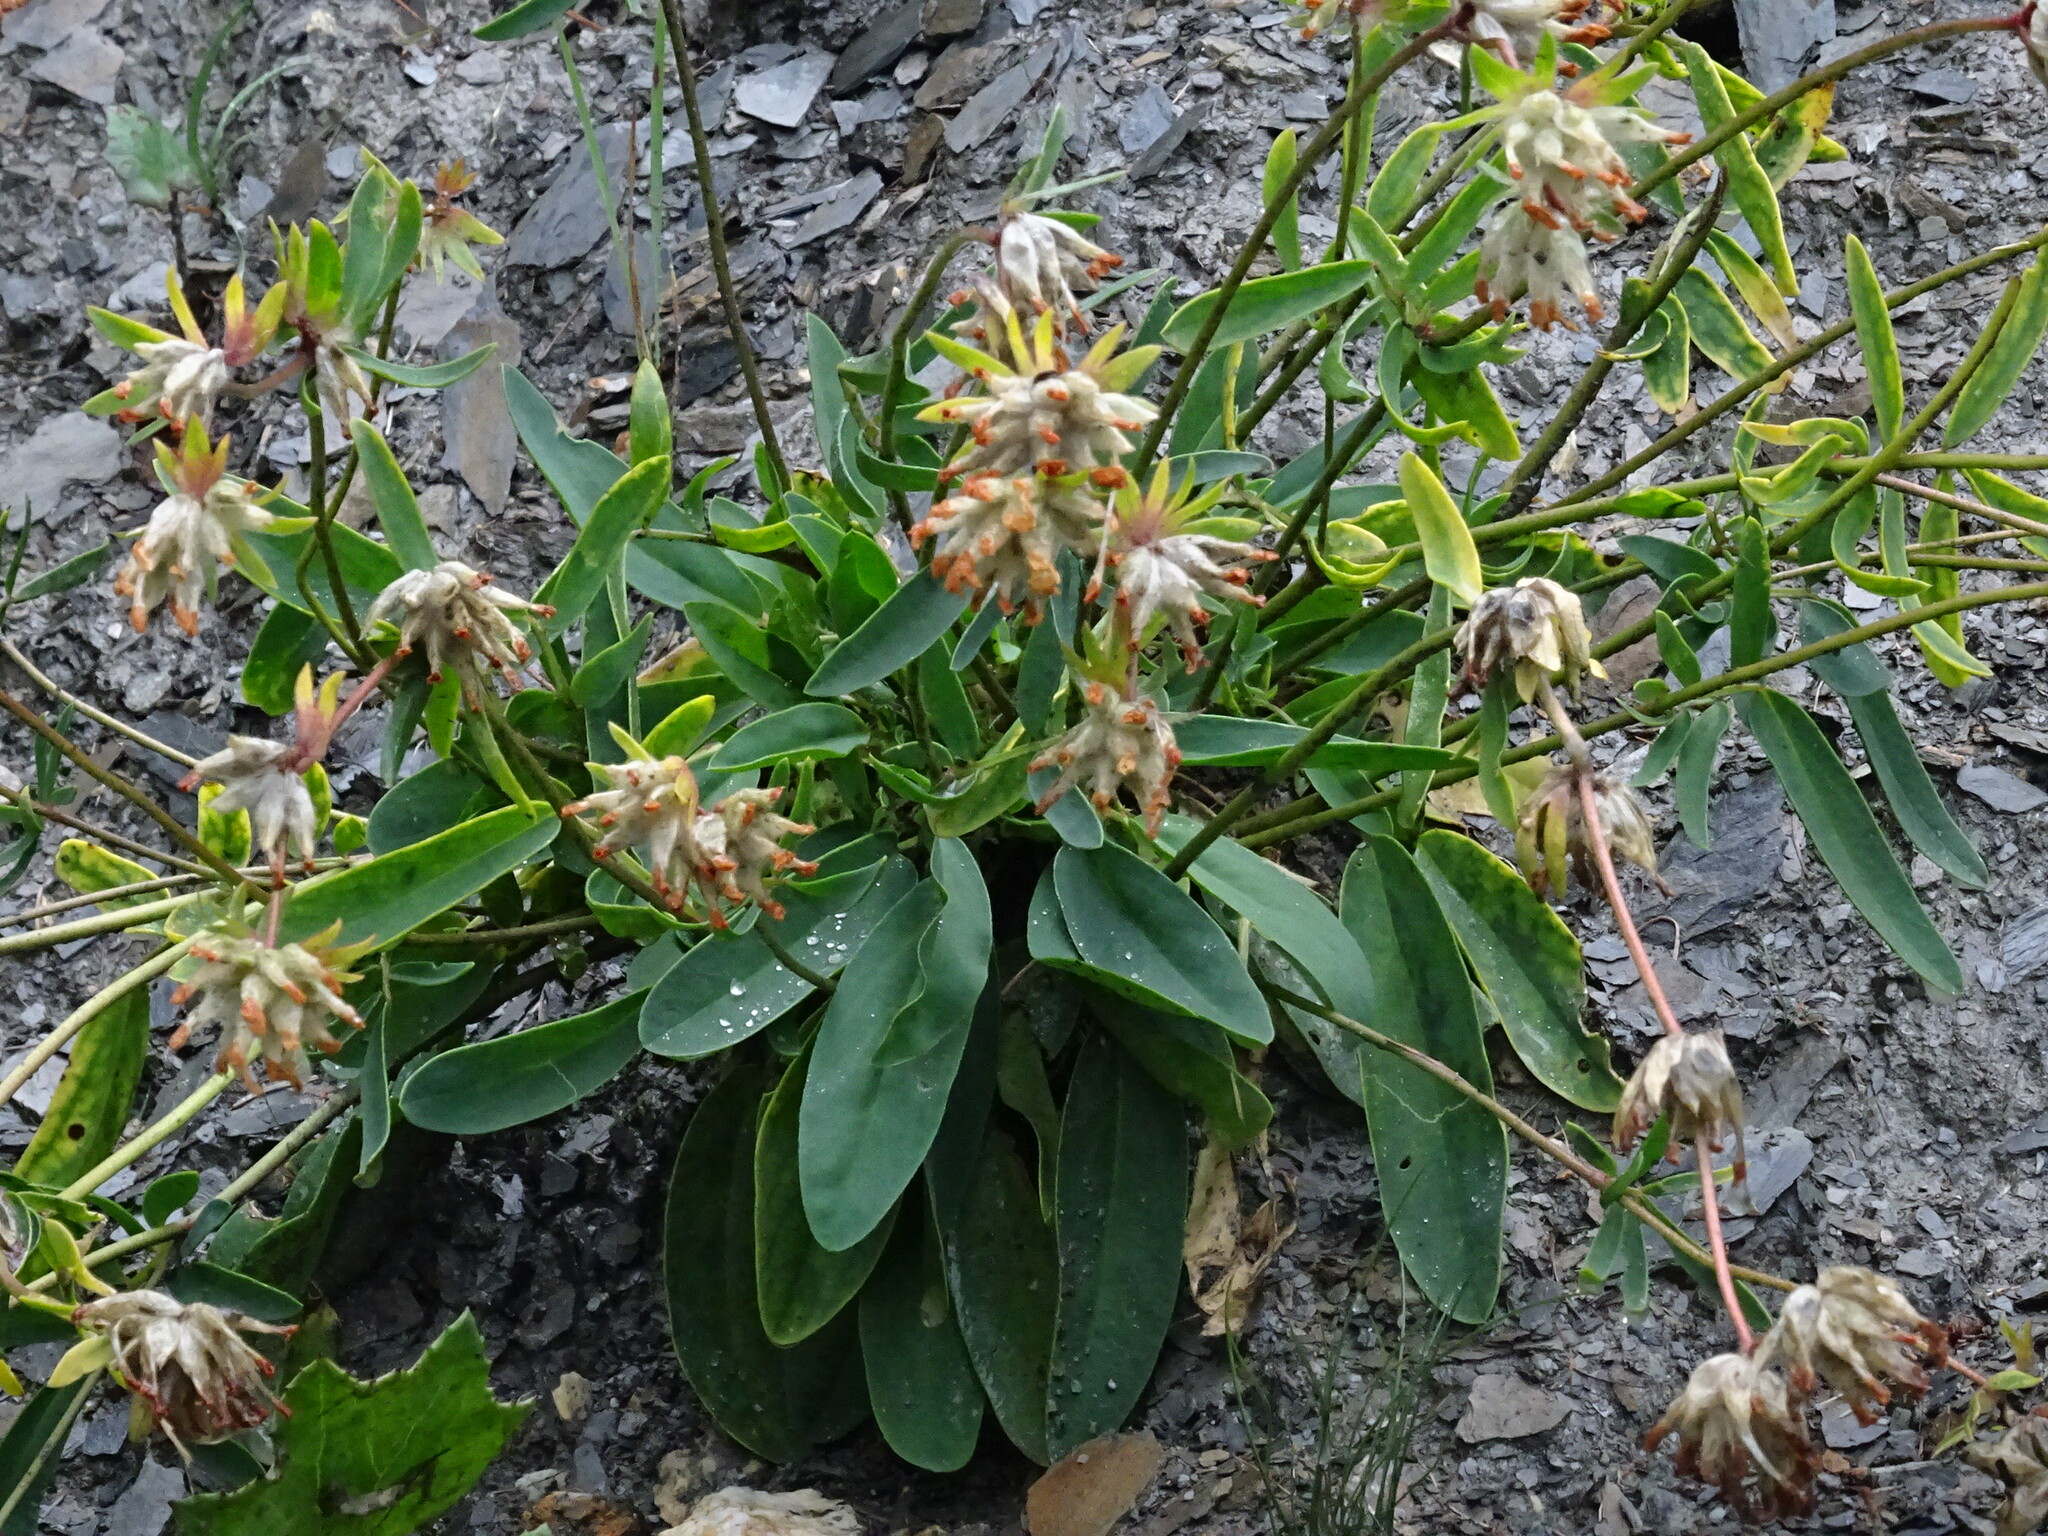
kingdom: Plantae
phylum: Tracheophyta
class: Magnoliopsida
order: Fabales
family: Fabaceae
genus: Anthyllis
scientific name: Anthyllis vulneraria
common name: Kidney vetch
